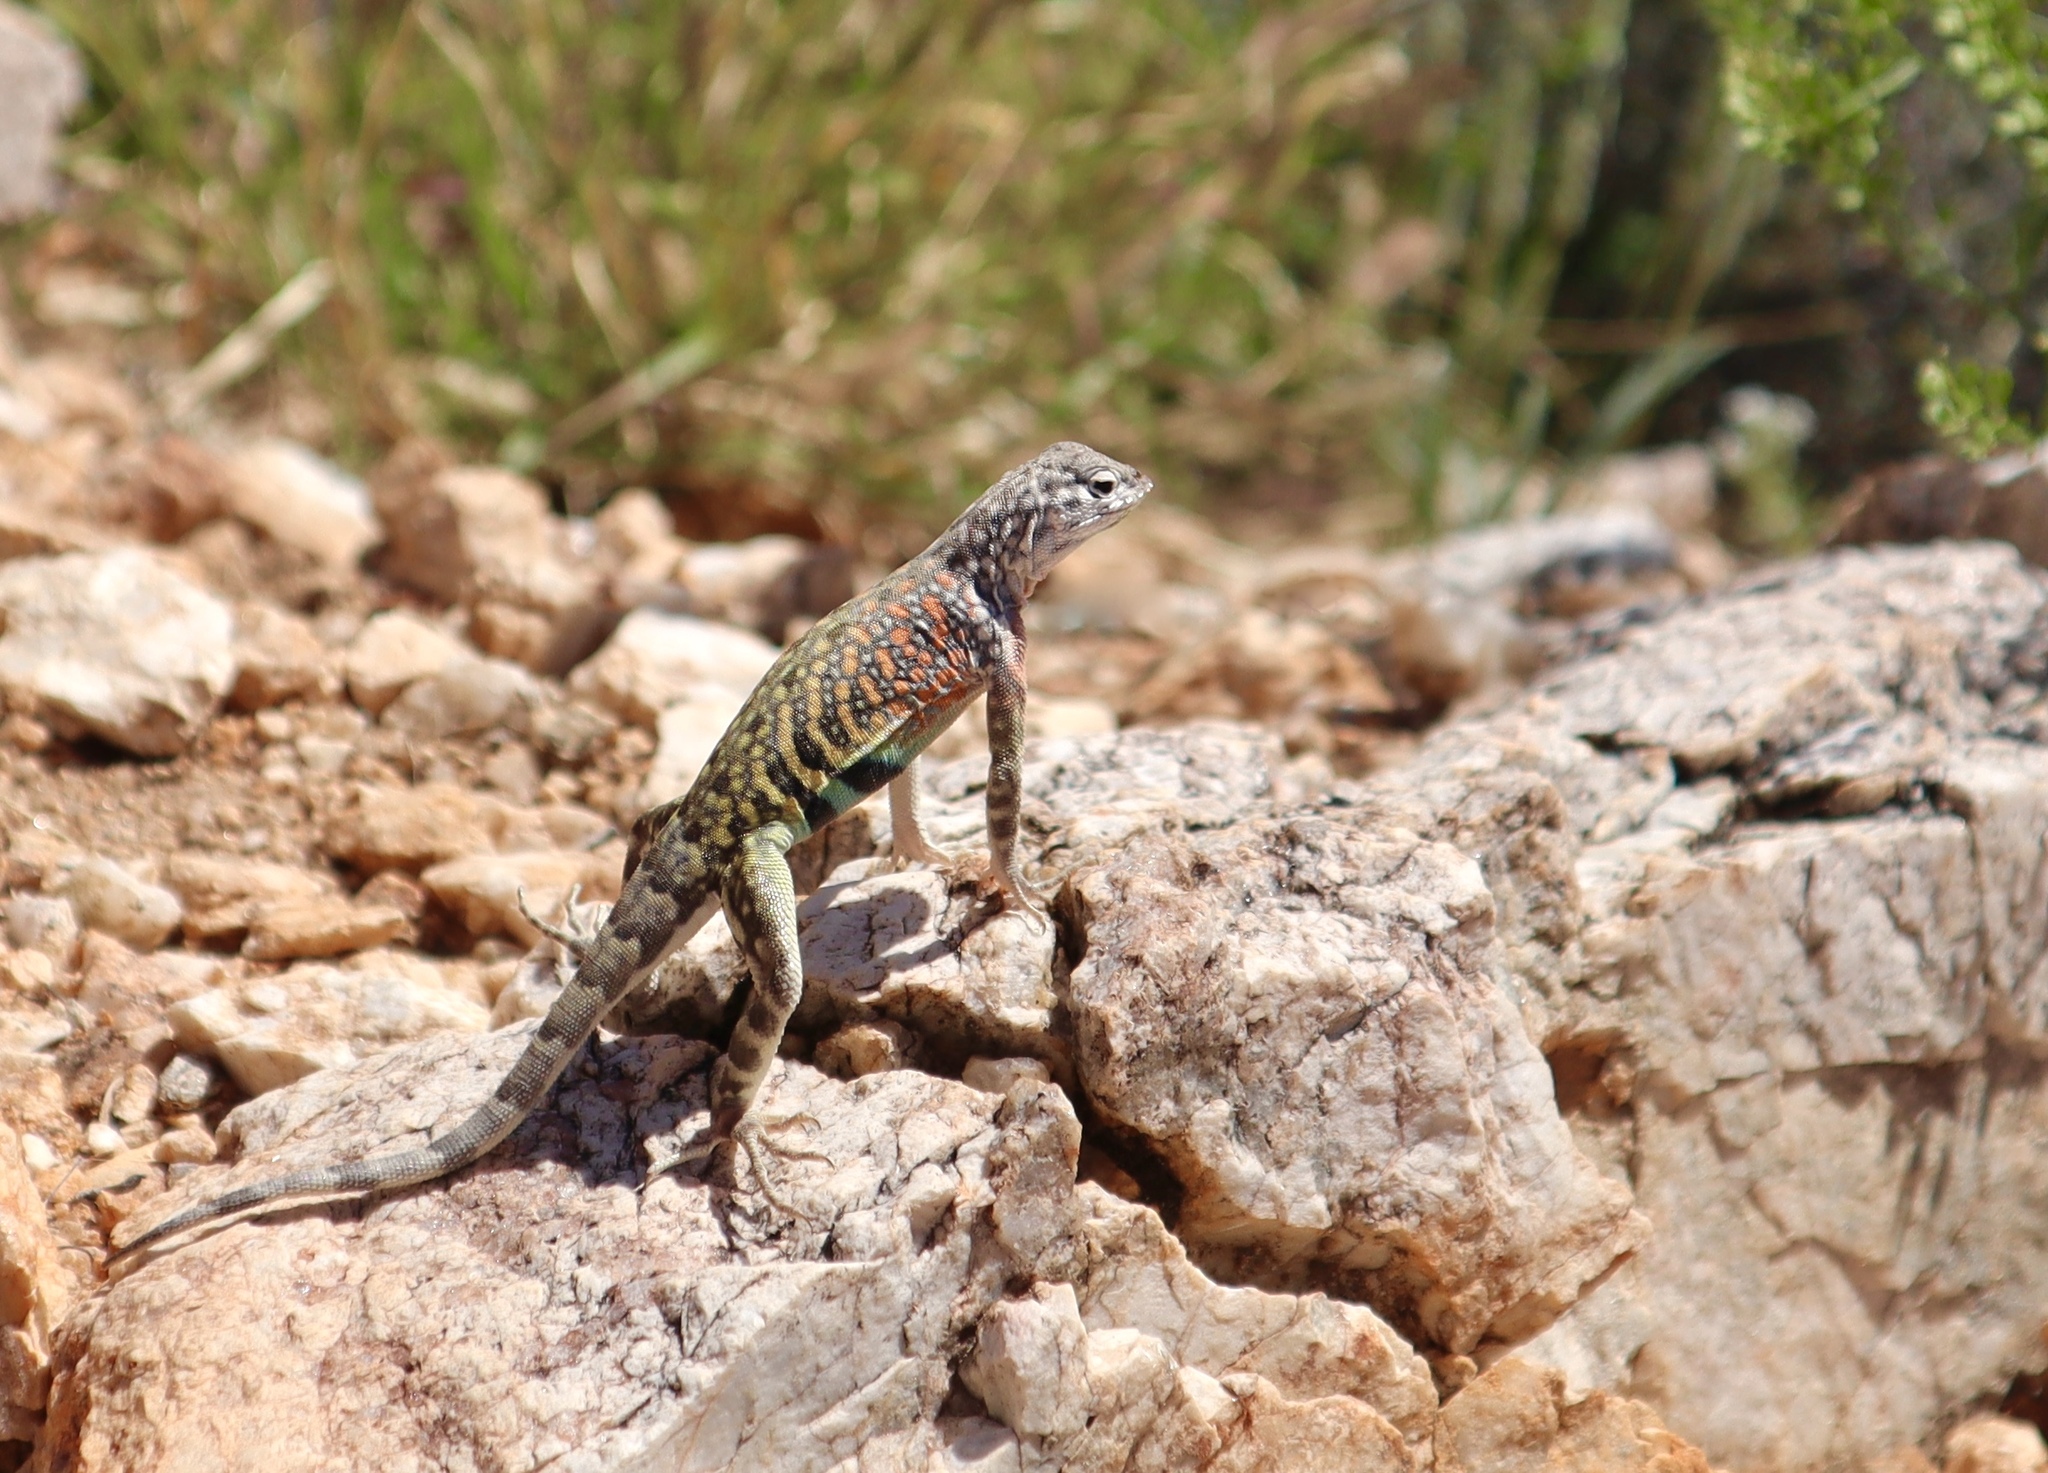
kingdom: Animalia
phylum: Chordata
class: Squamata
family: Phrynosomatidae
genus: Cophosaurus
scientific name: Cophosaurus texanus
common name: Greater earless lizard
